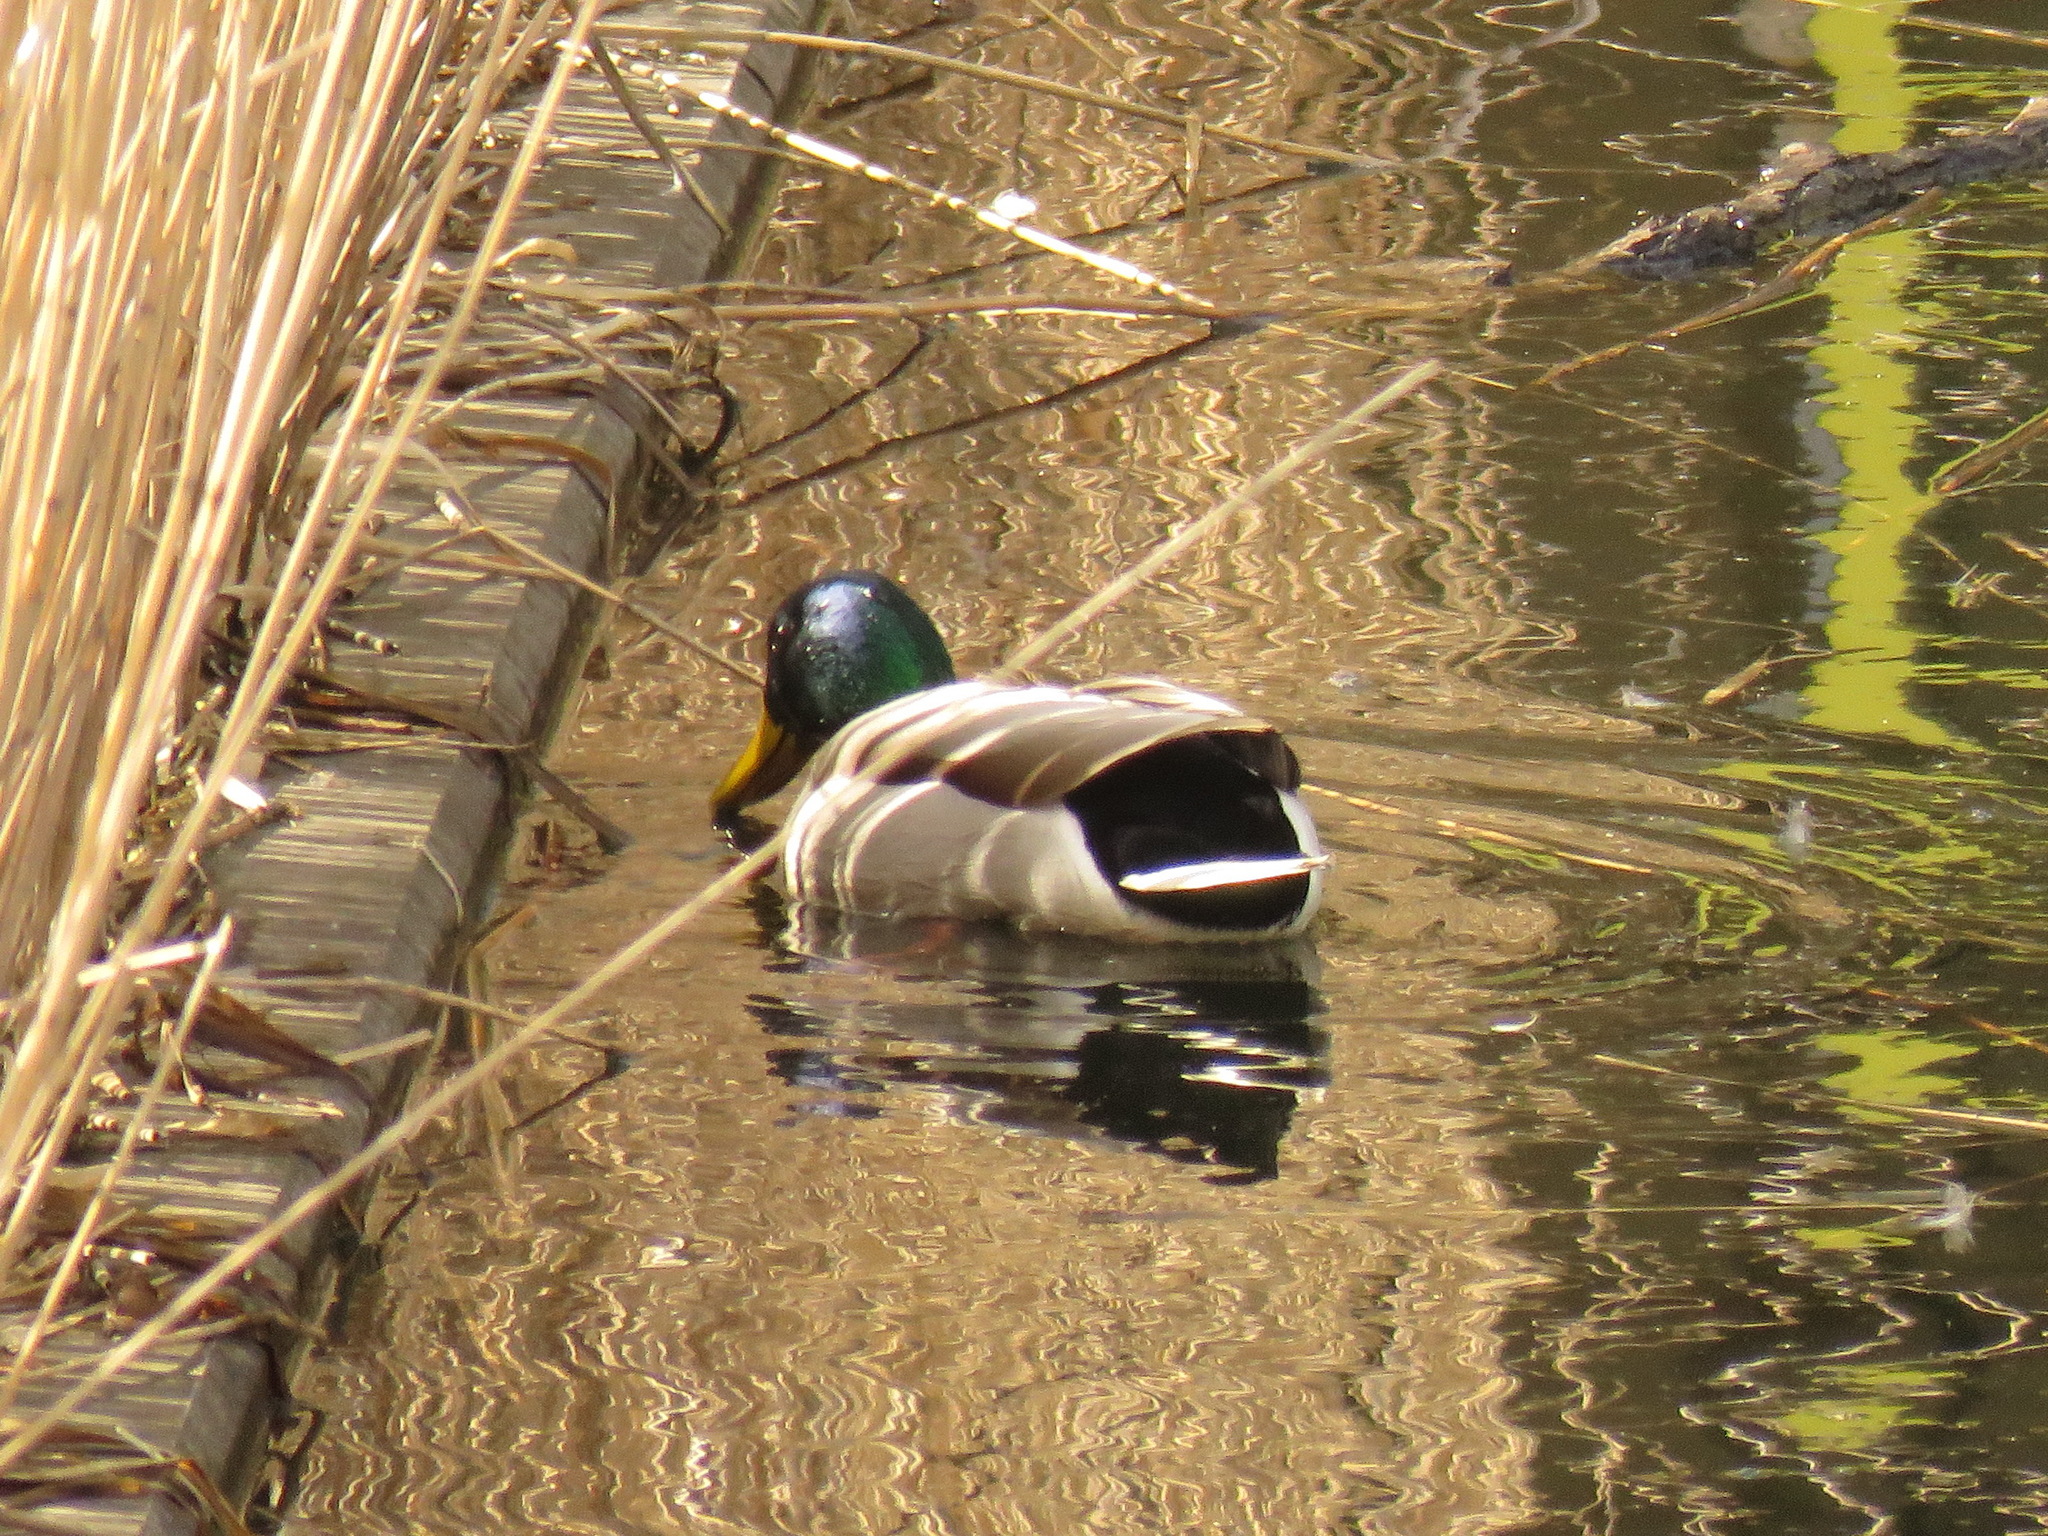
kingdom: Animalia
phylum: Chordata
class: Aves
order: Anseriformes
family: Anatidae
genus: Anas
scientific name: Anas platyrhynchos
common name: Mallard
